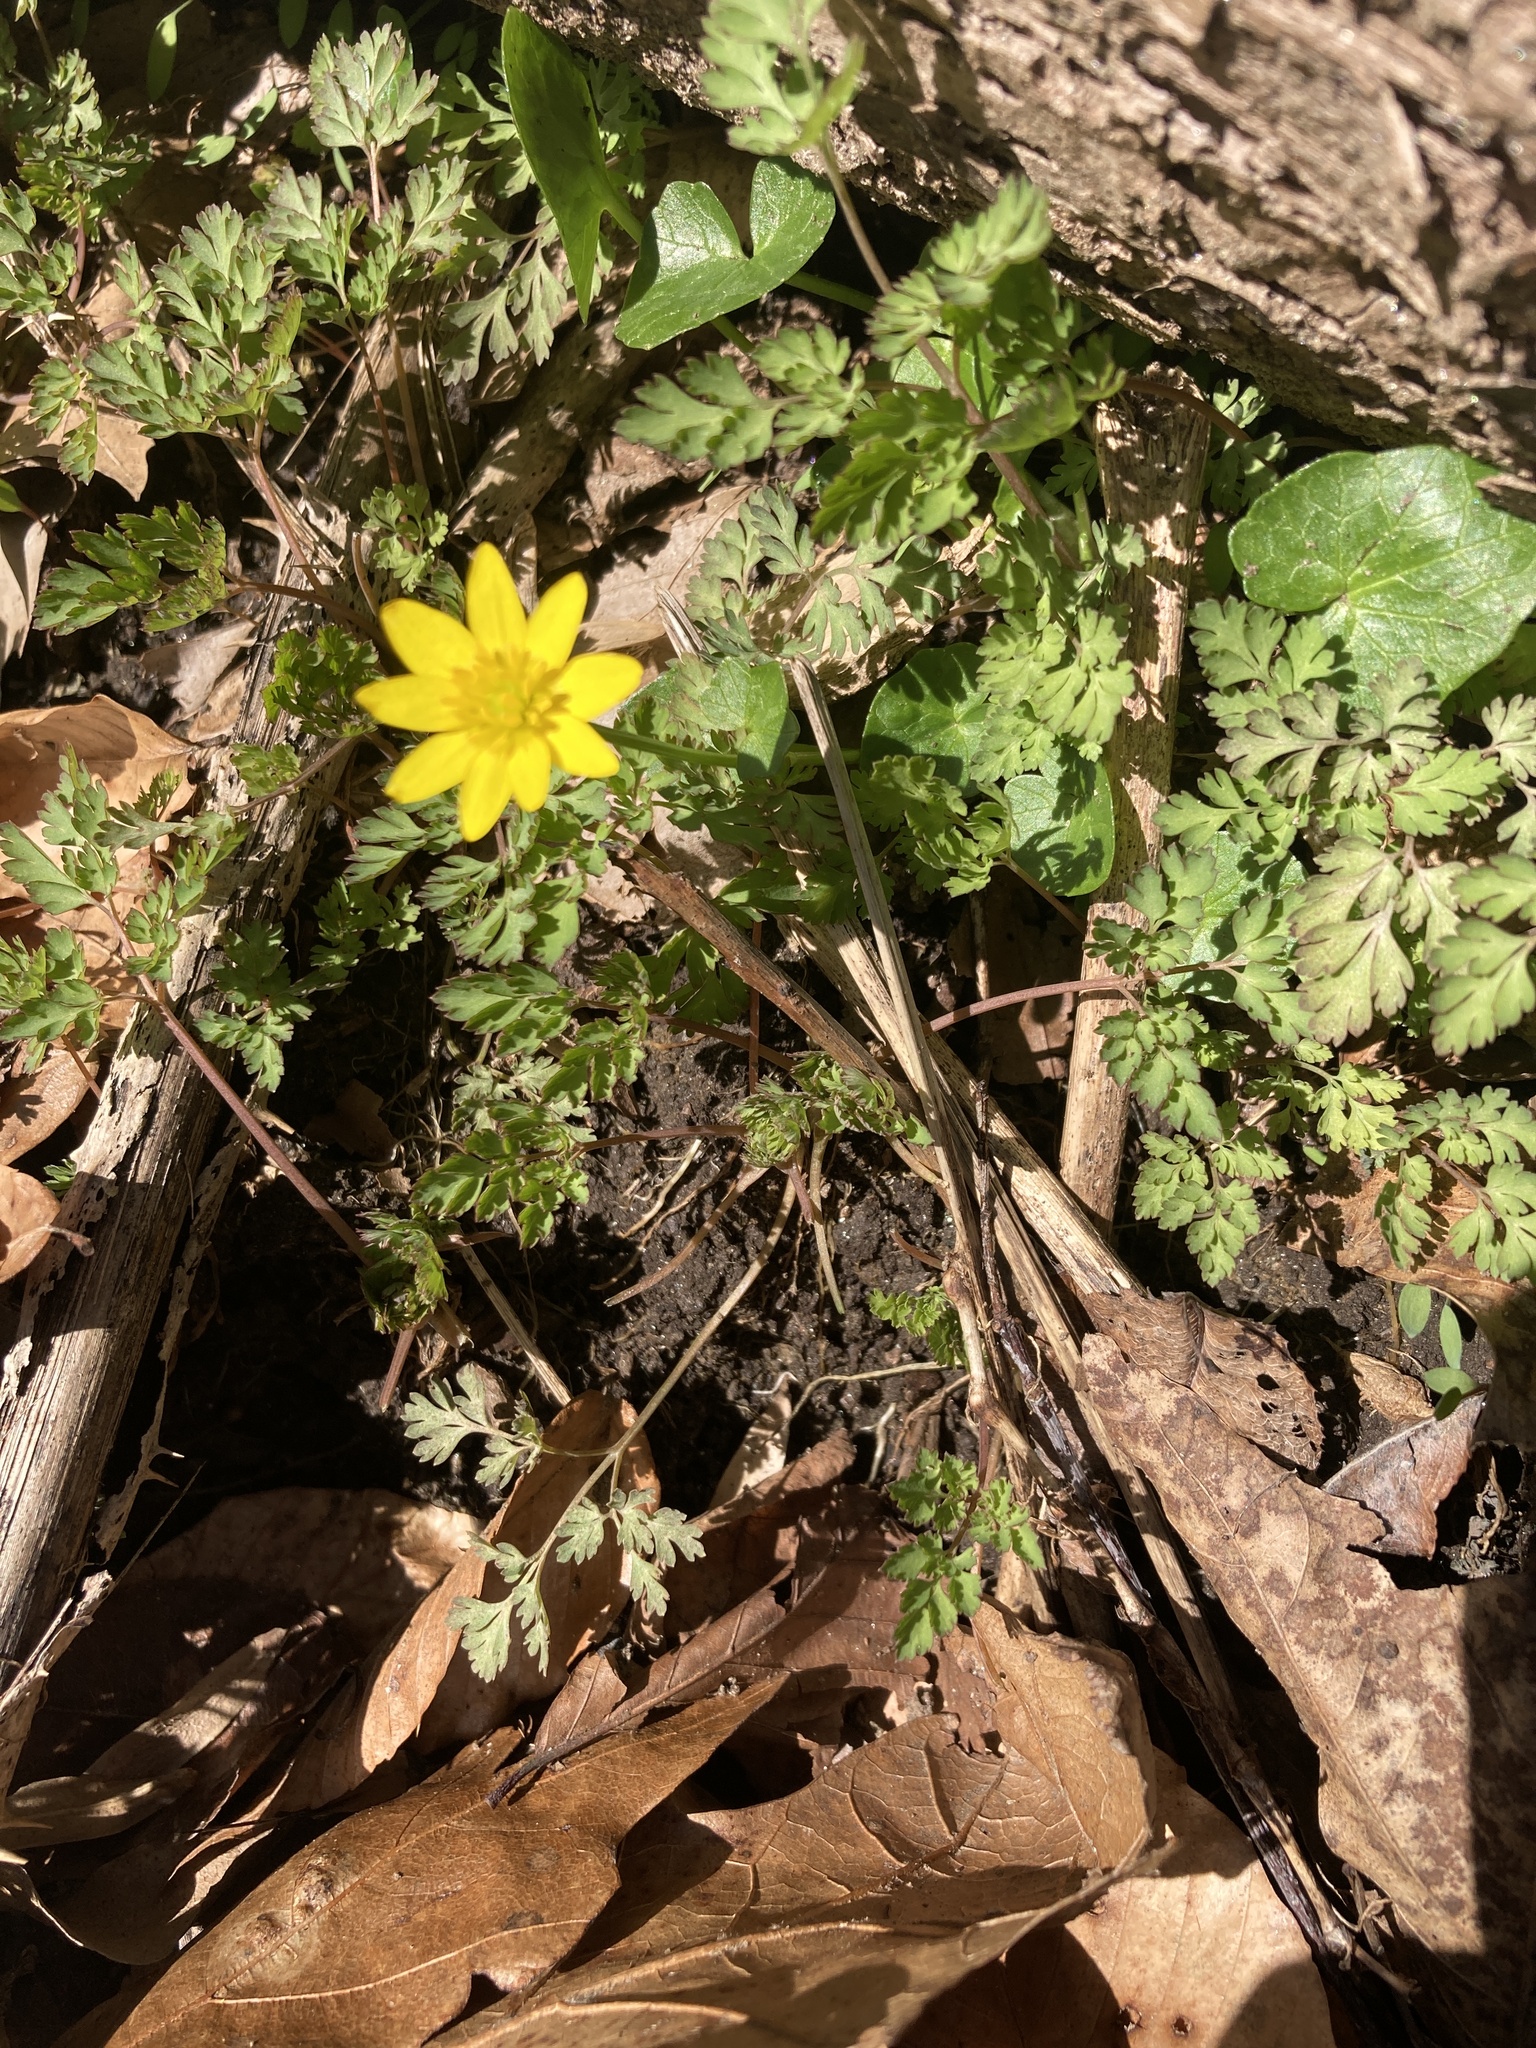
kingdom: Plantae
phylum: Tracheophyta
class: Magnoliopsida
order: Ranunculales
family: Ranunculaceae
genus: Ficaria
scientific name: Ficaria verna
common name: Lesser celandine
